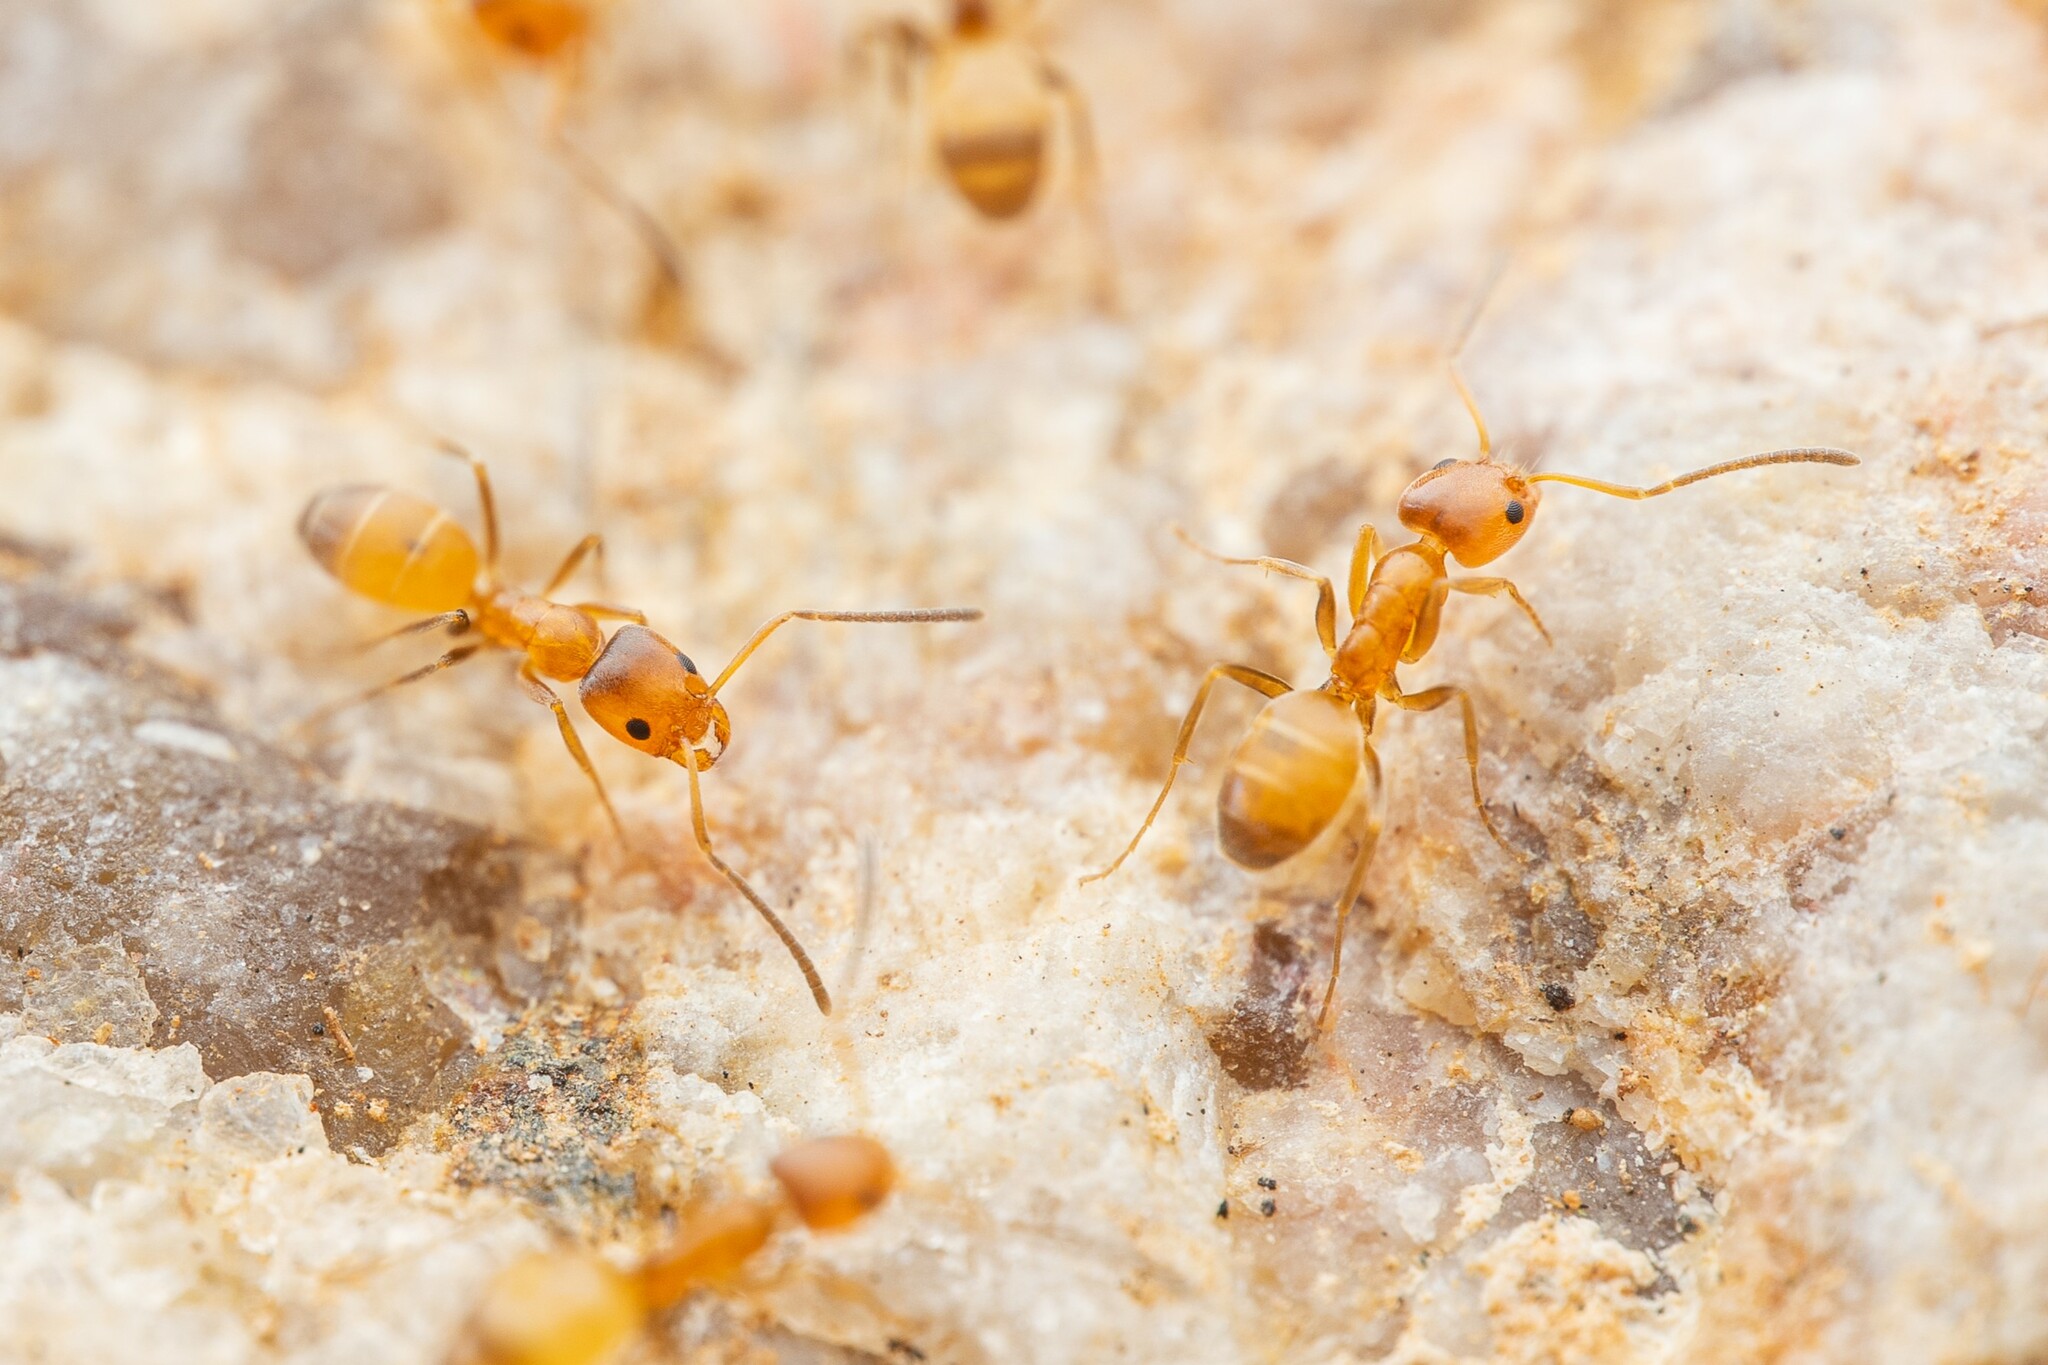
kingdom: Animalia
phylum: Arthropoda
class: Insecta
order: Hymenoptera
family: Formicidae
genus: Forelius
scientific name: Forelius pruinosus
